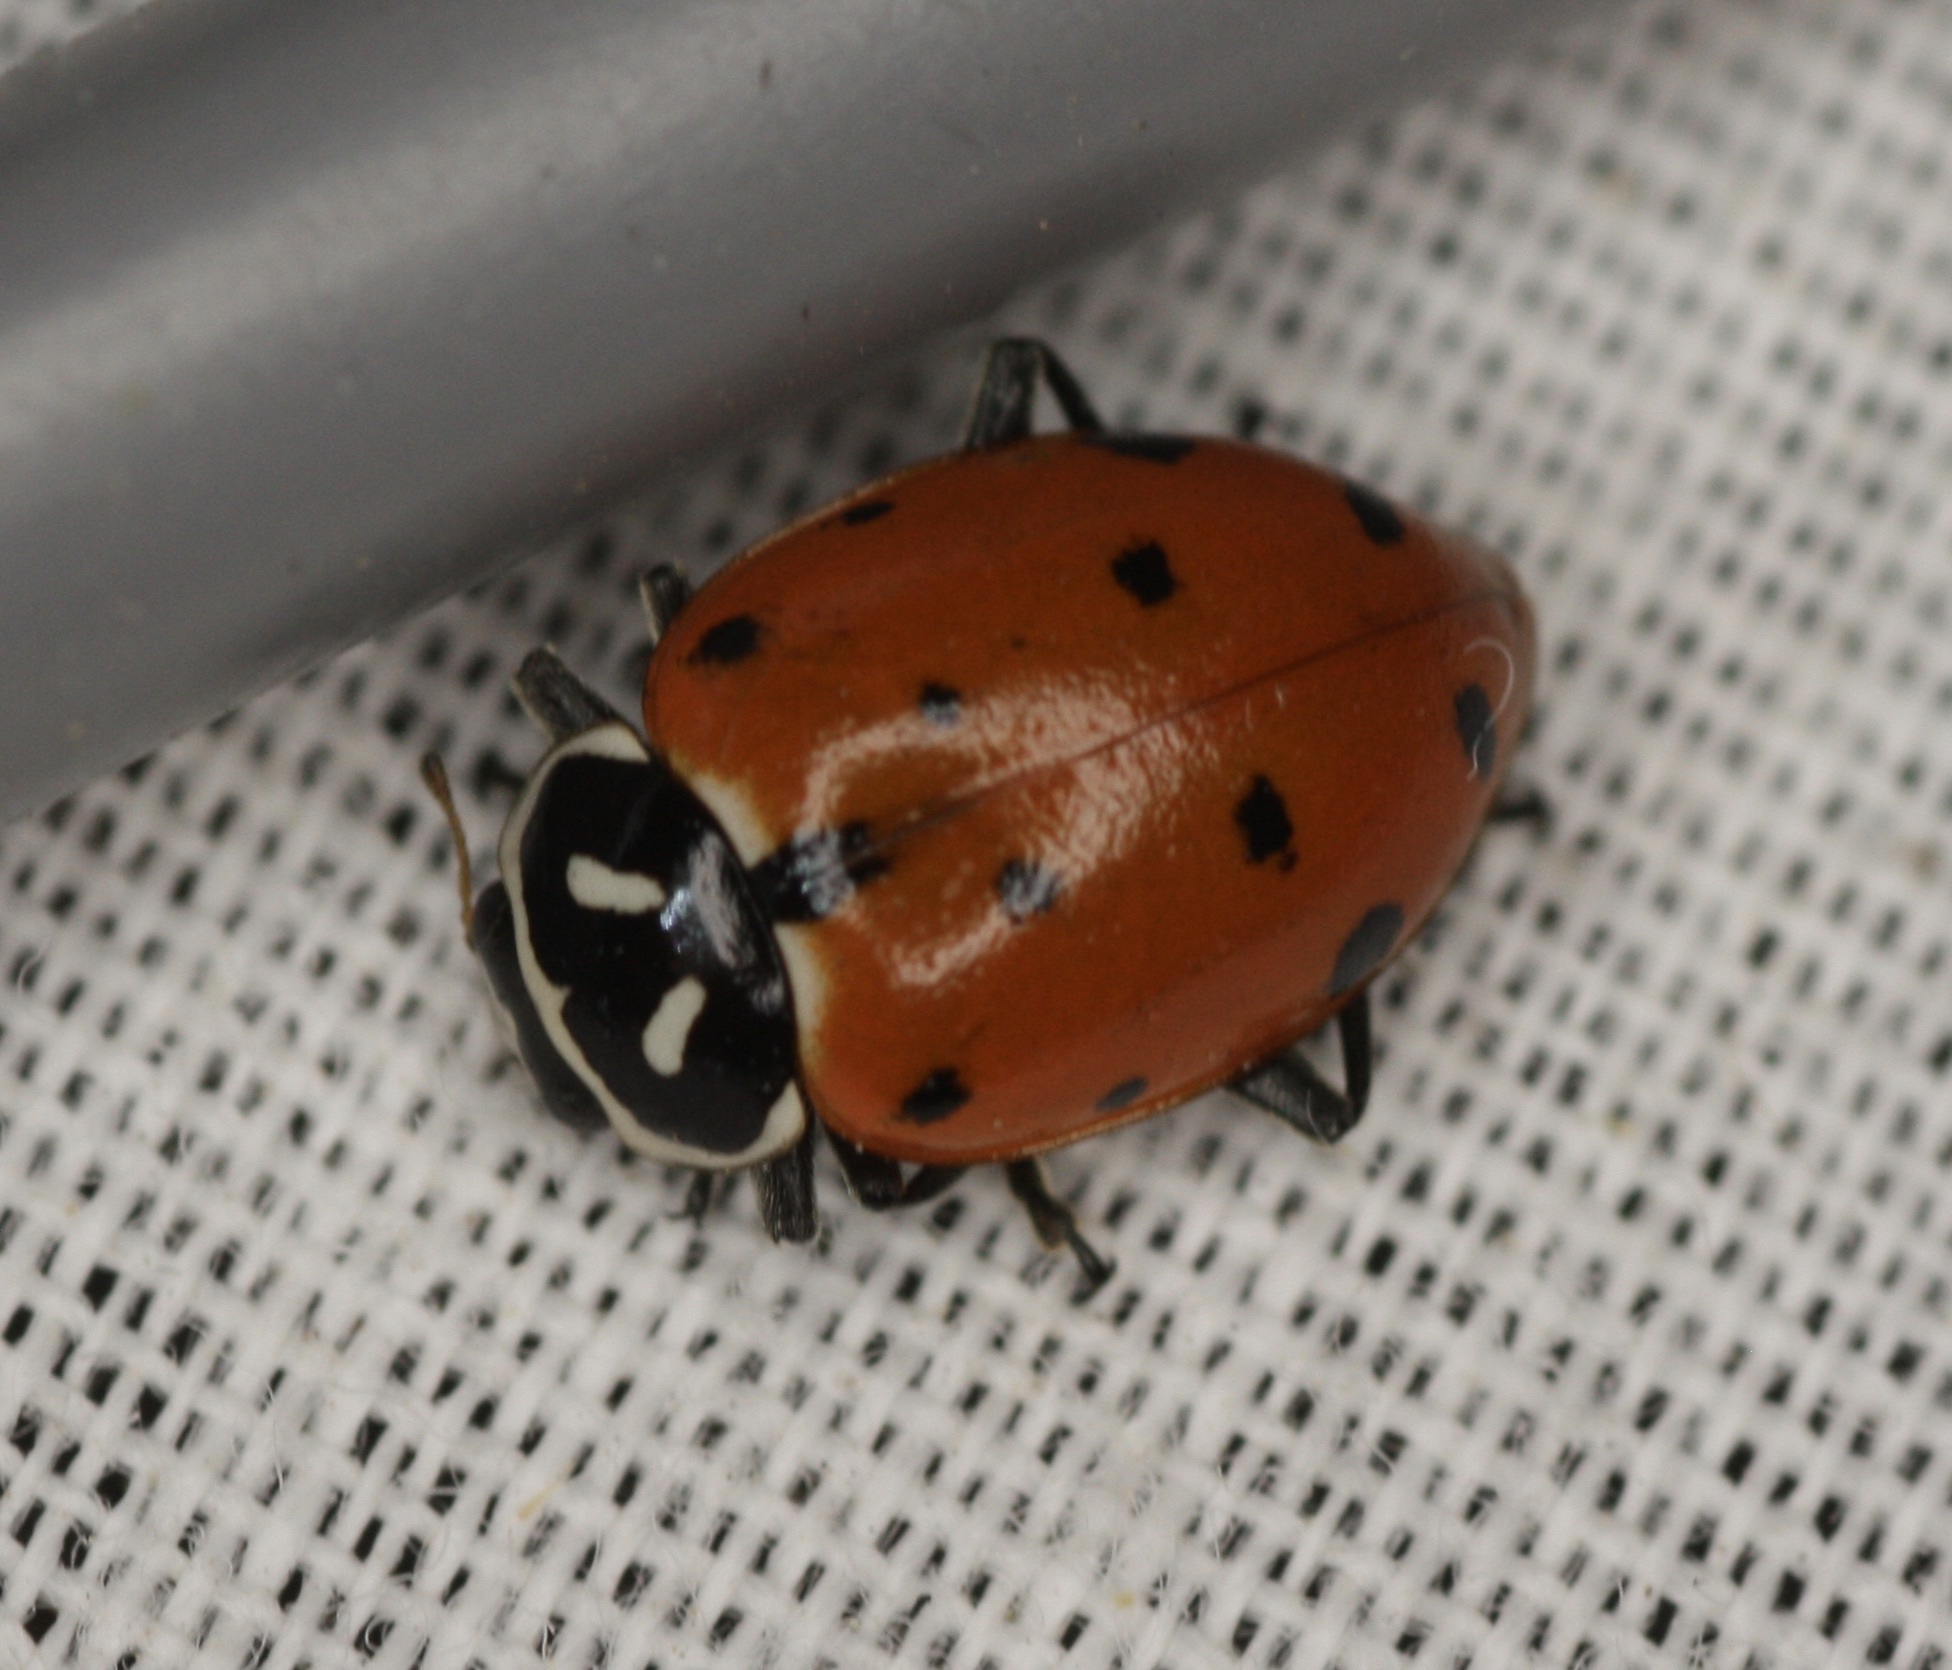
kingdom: Animalia
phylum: Arthropoda
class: Insecta
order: Coleoptera
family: Coccinellidae
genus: Hippodamia
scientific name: Hippodamia convergens
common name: Convergent lady beetle
